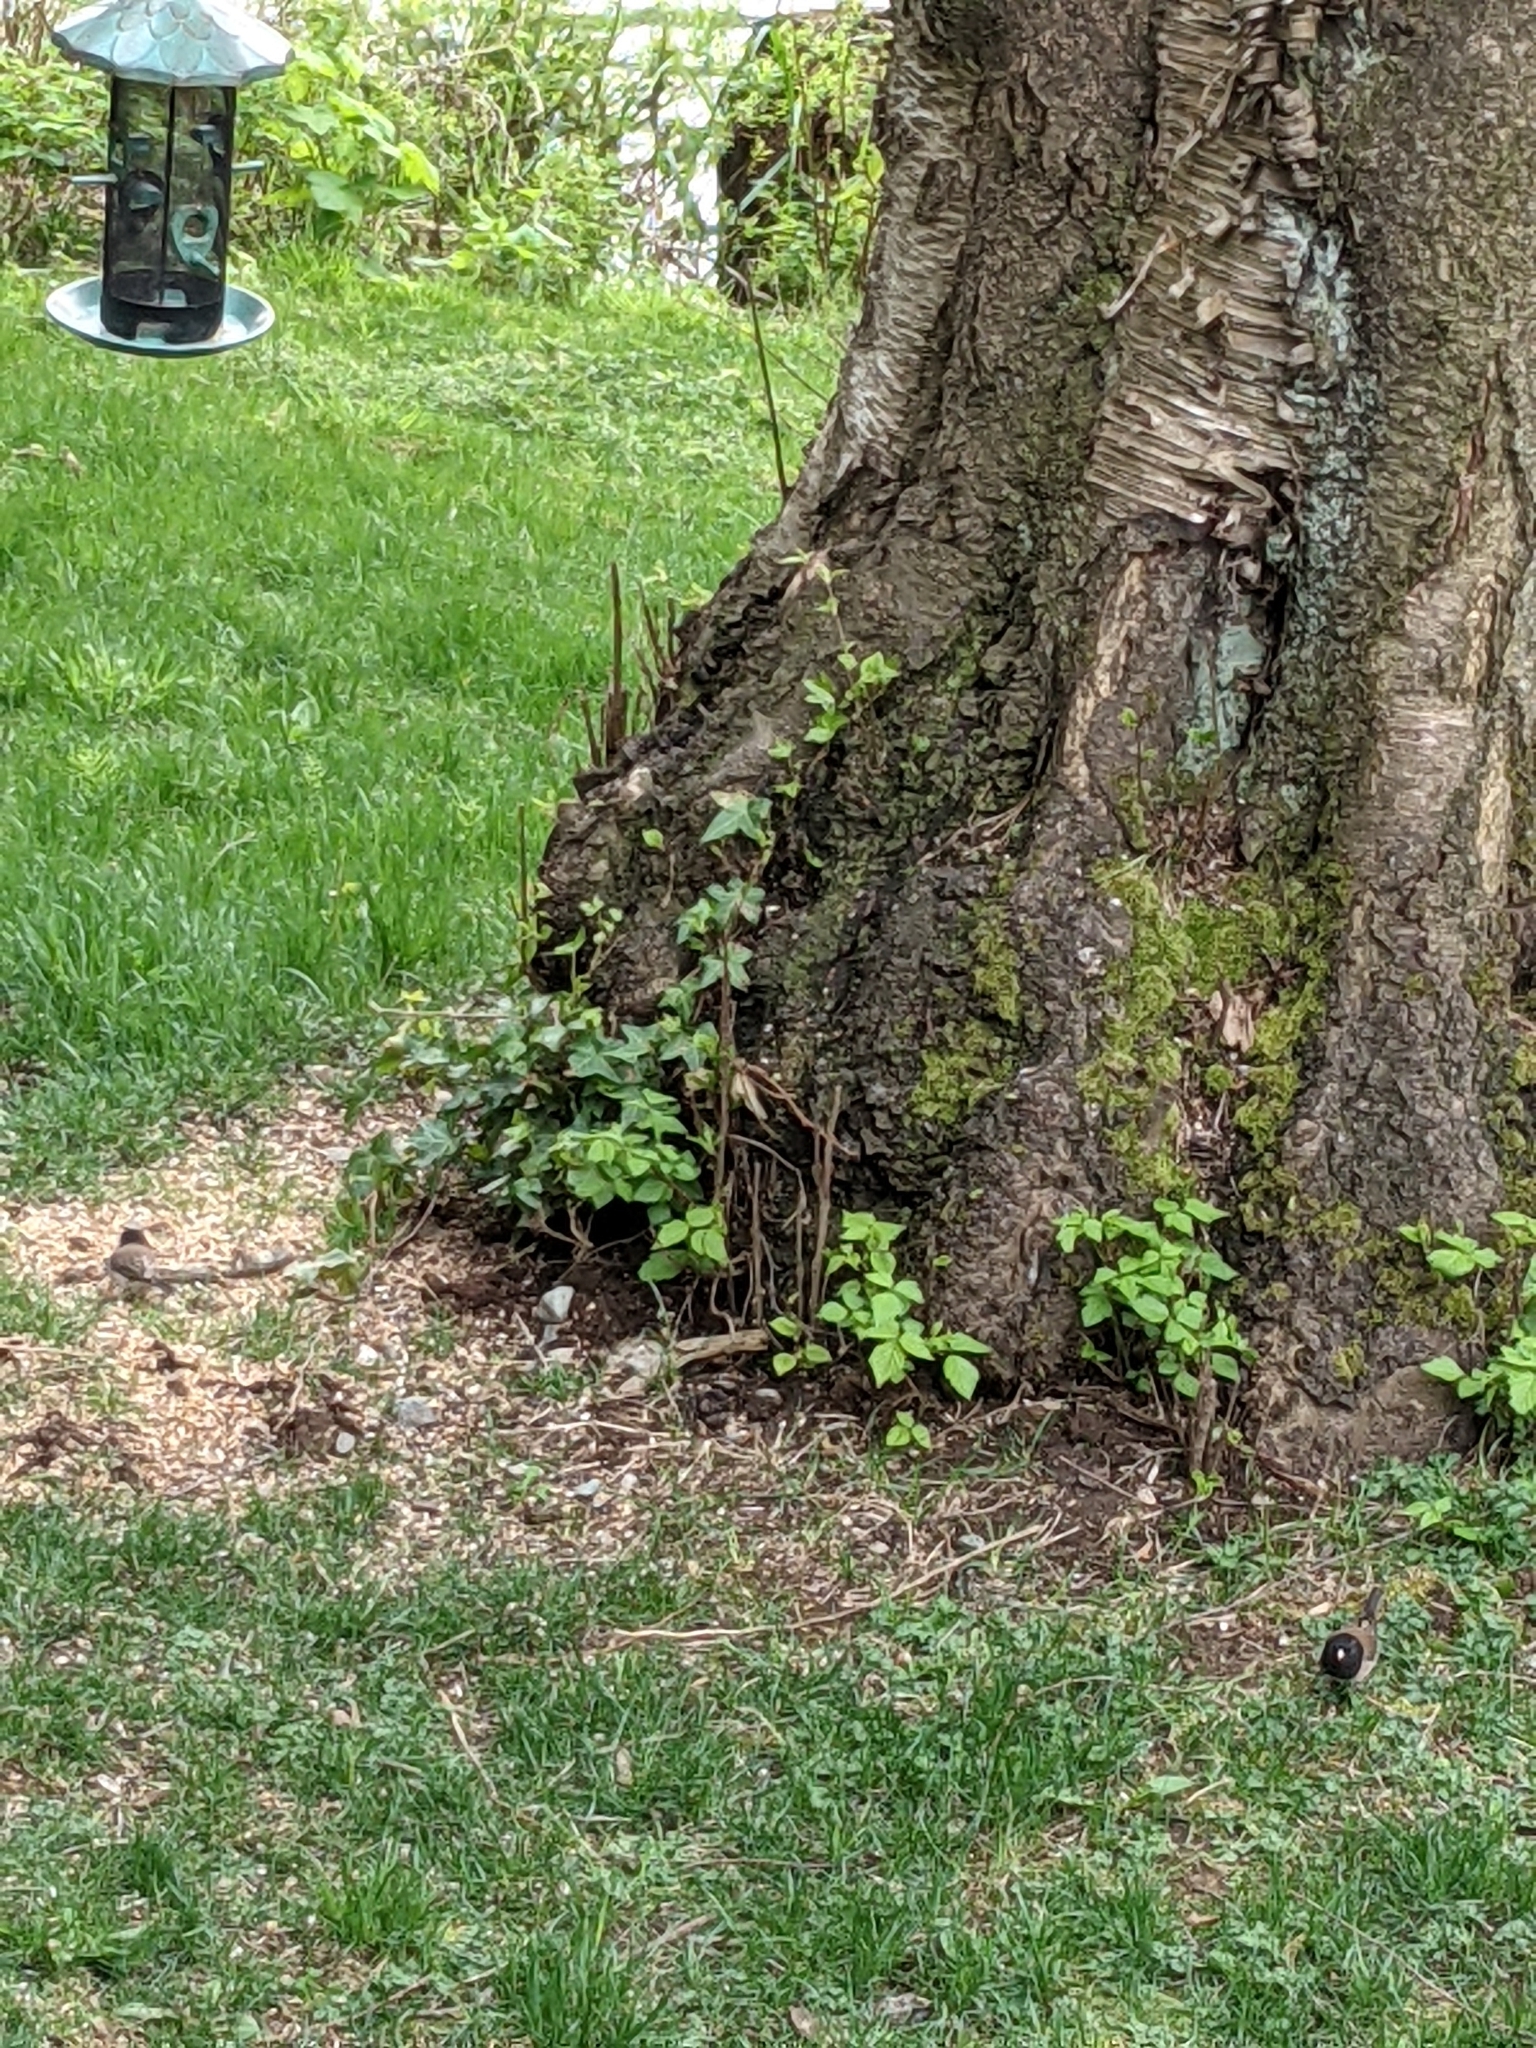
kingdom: Animalia
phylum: Chordata
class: Aves
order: Passeriformes
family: Passerellidae
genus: Junco
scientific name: Junco hyemalis
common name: Dark-eyed junco
